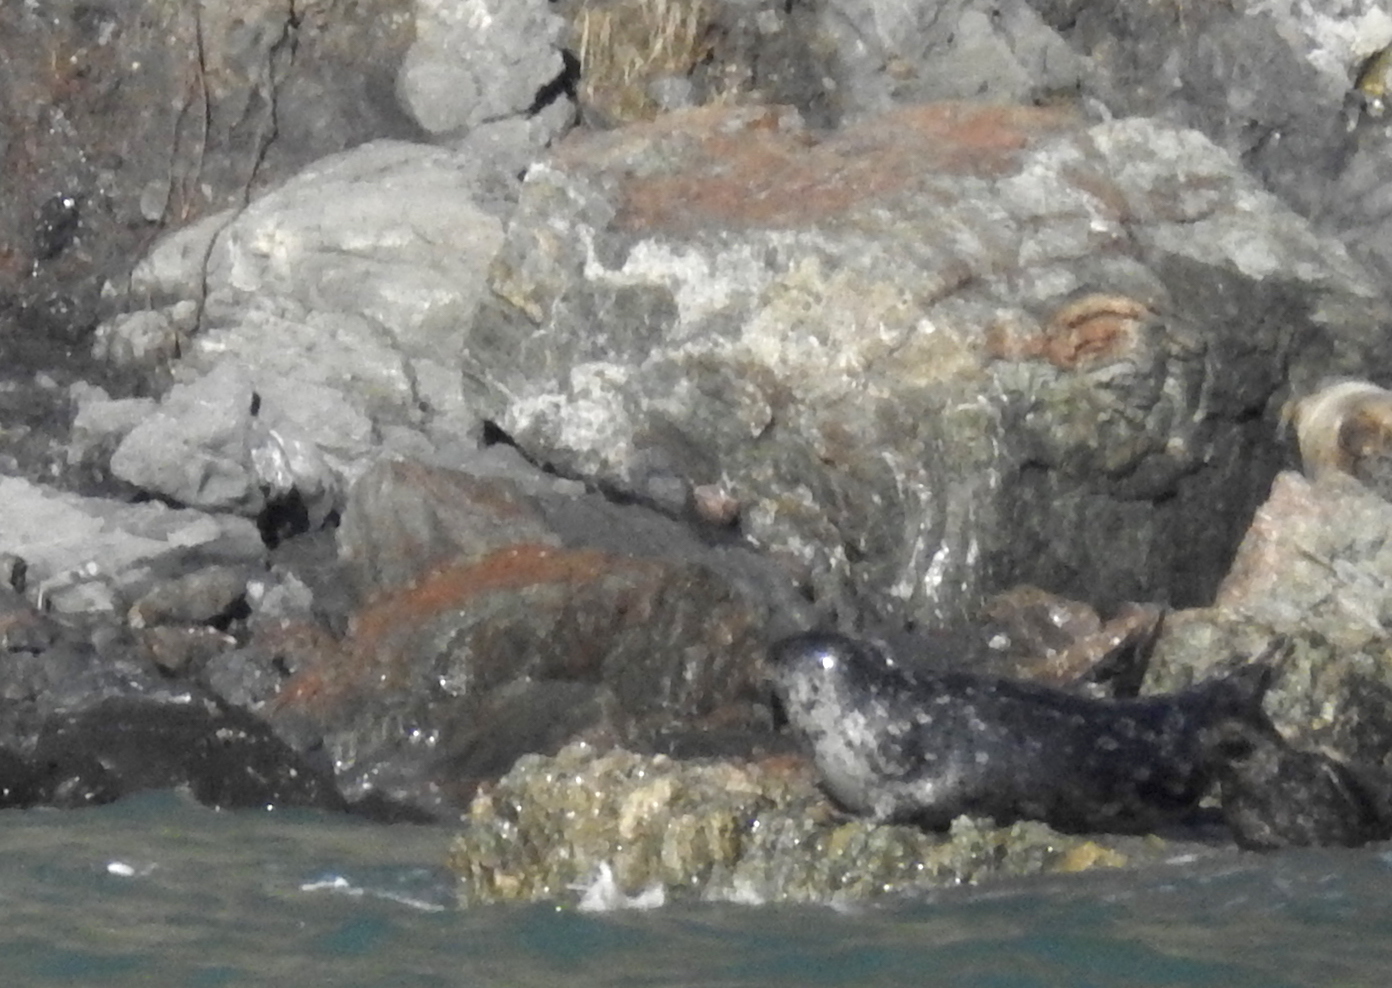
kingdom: Animalia
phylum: Chordata
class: Mammalia
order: Carnivora
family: Phocidae
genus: Phoca
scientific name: Phoca vitulina
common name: Harbor seal
